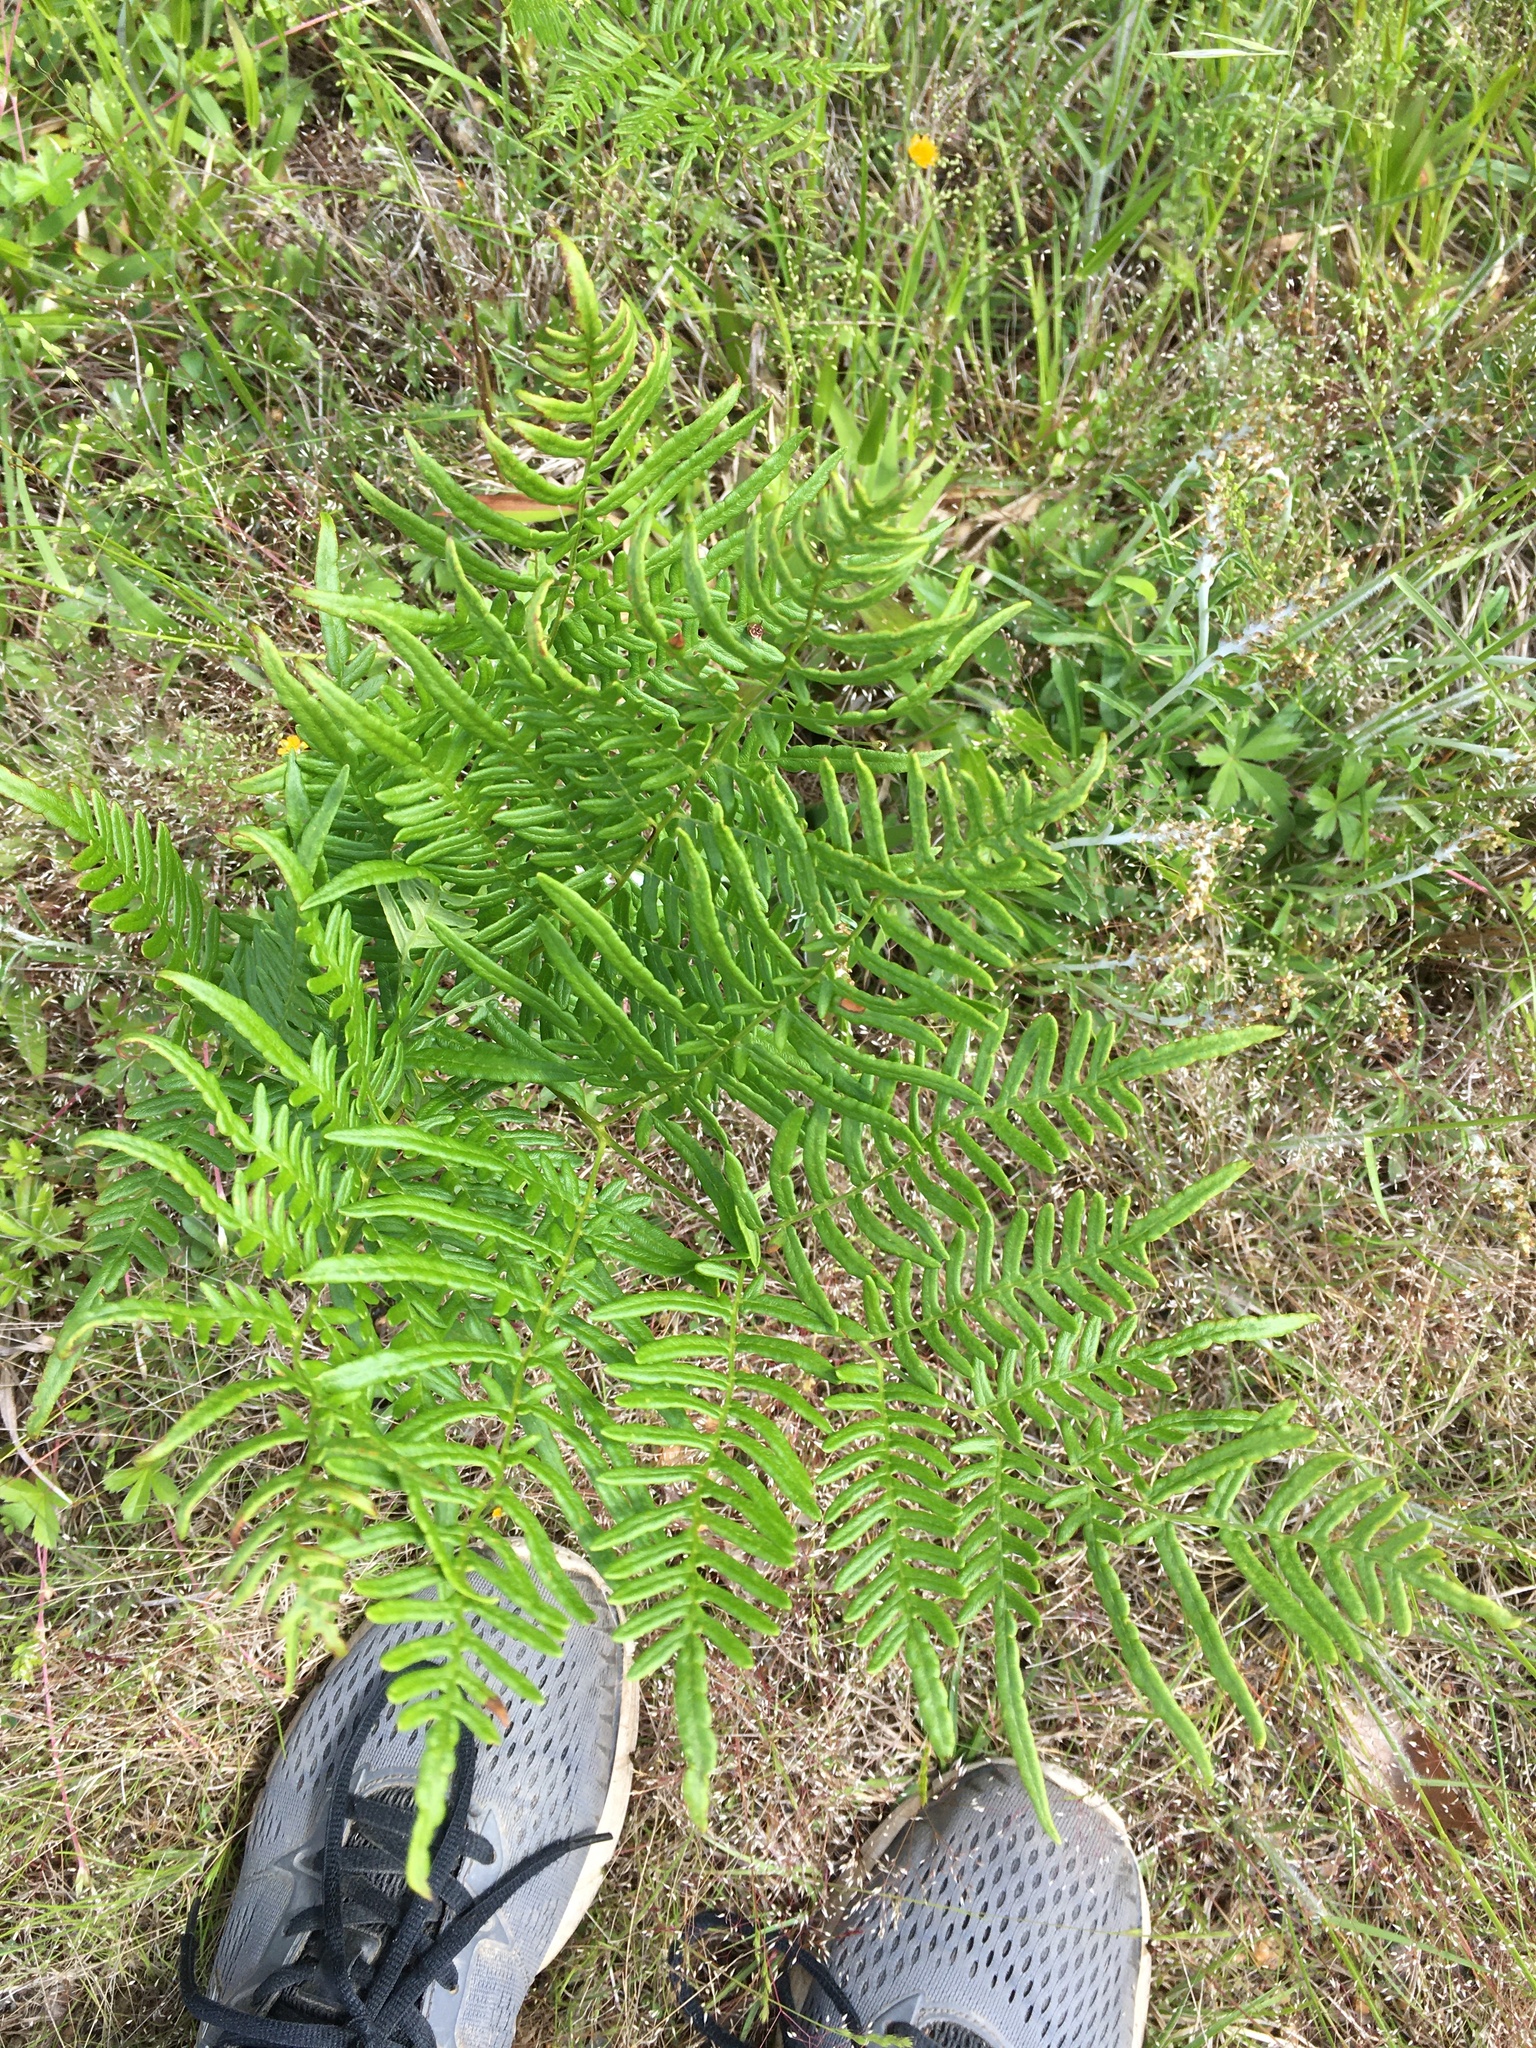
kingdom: Plantae
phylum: Tracheophyta
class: Polypodiopsida
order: Polypodiales
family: Dennstaedtiaceae
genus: Pteridium
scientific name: Pteridium aquilinum
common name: Bracken
